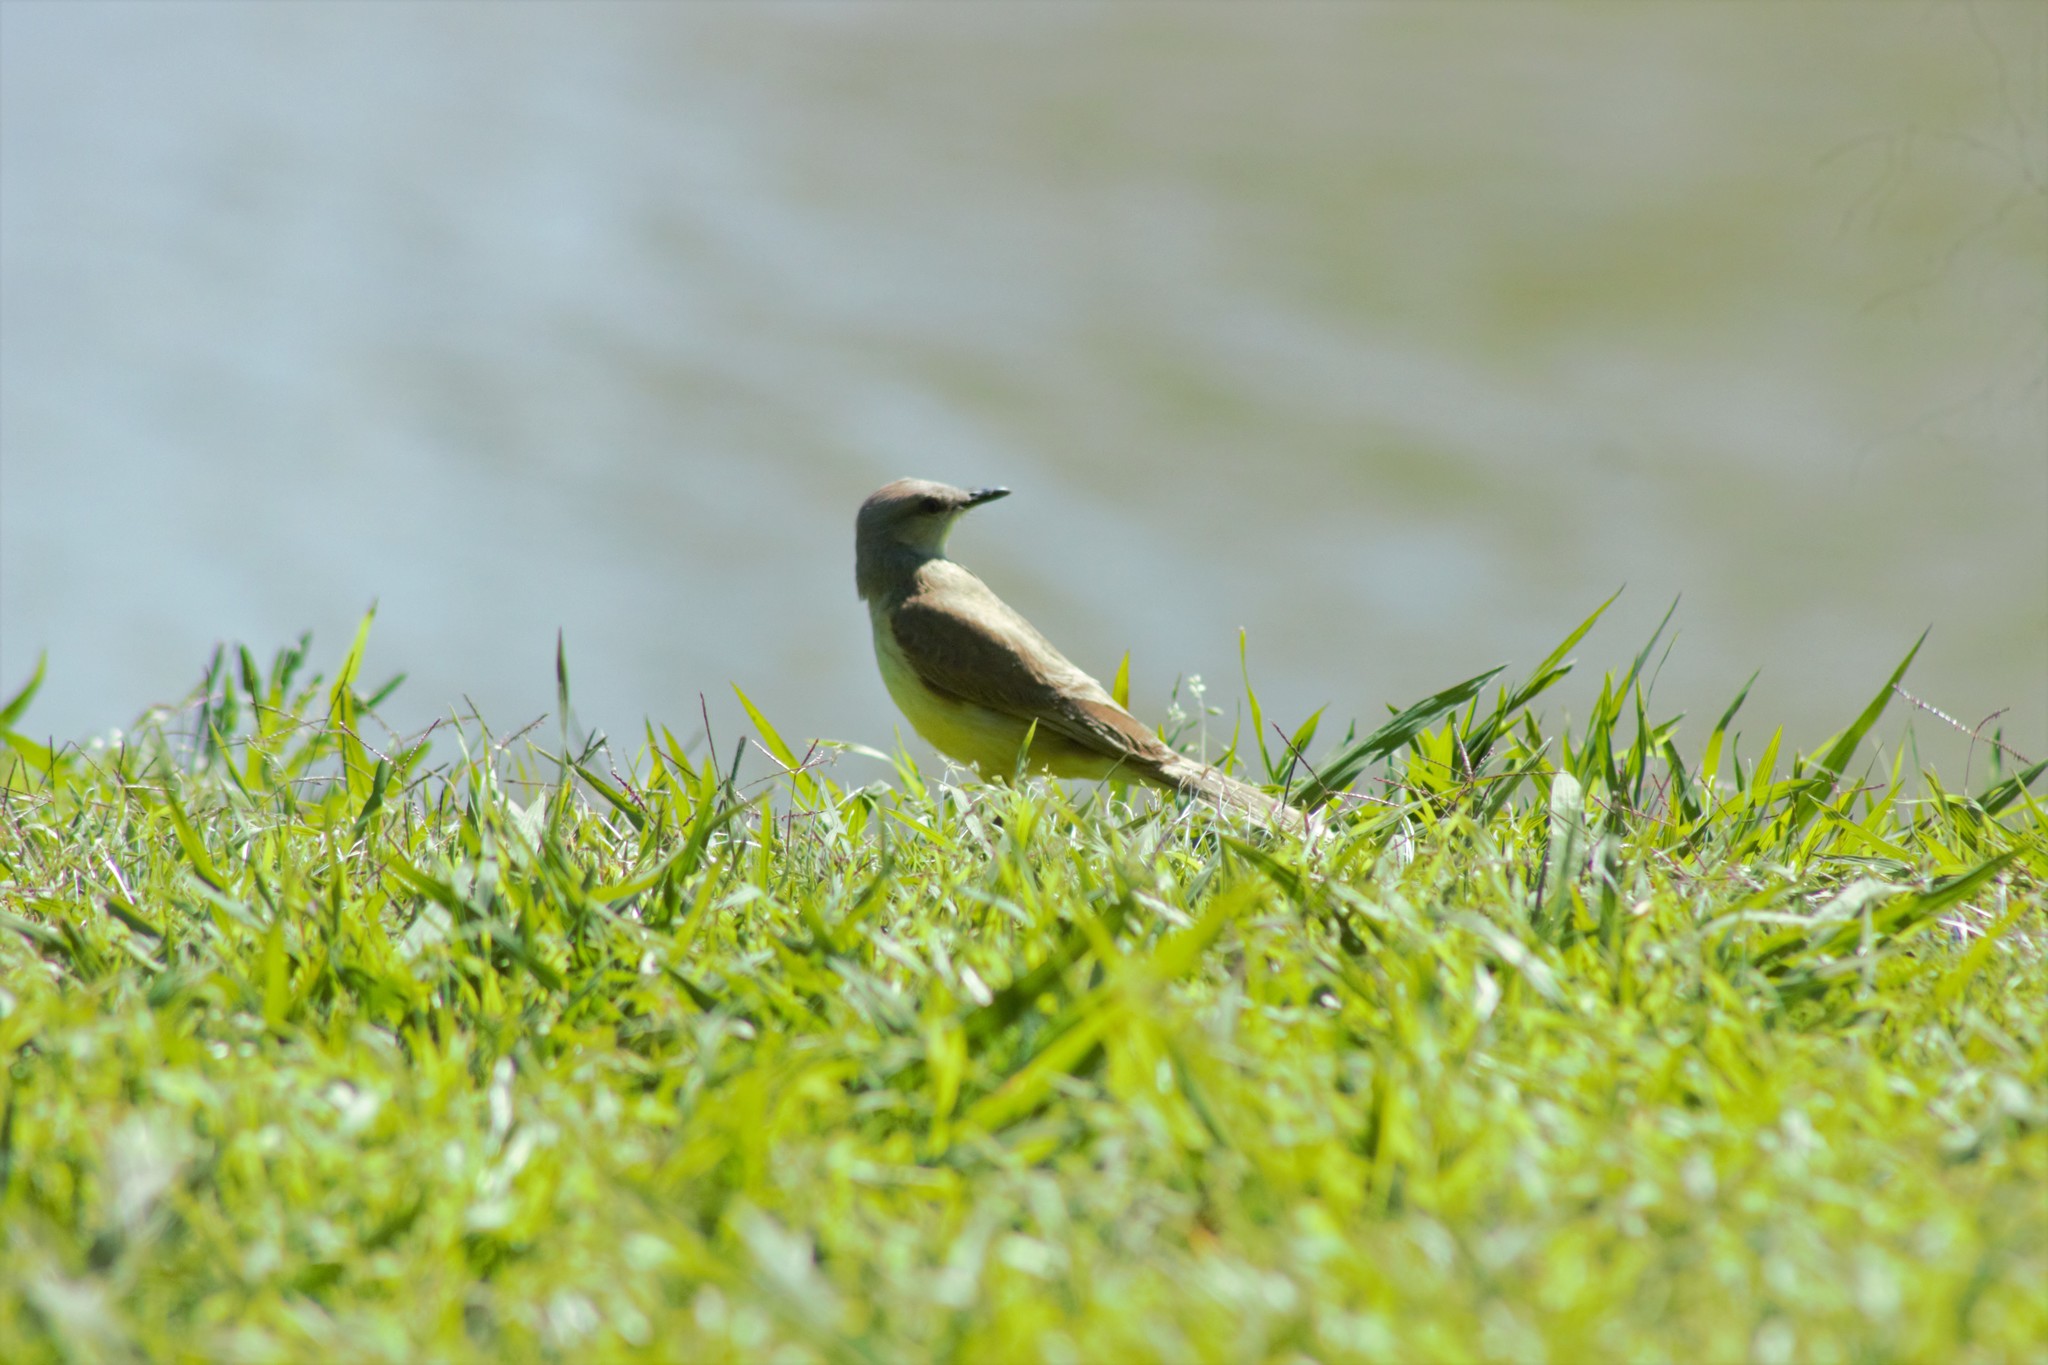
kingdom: Animalia
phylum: Chordata
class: Aves
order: Passeriformes
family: Tyrannidae
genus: Machetornis
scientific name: Machetornis rixosa
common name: Cattle tyrant
